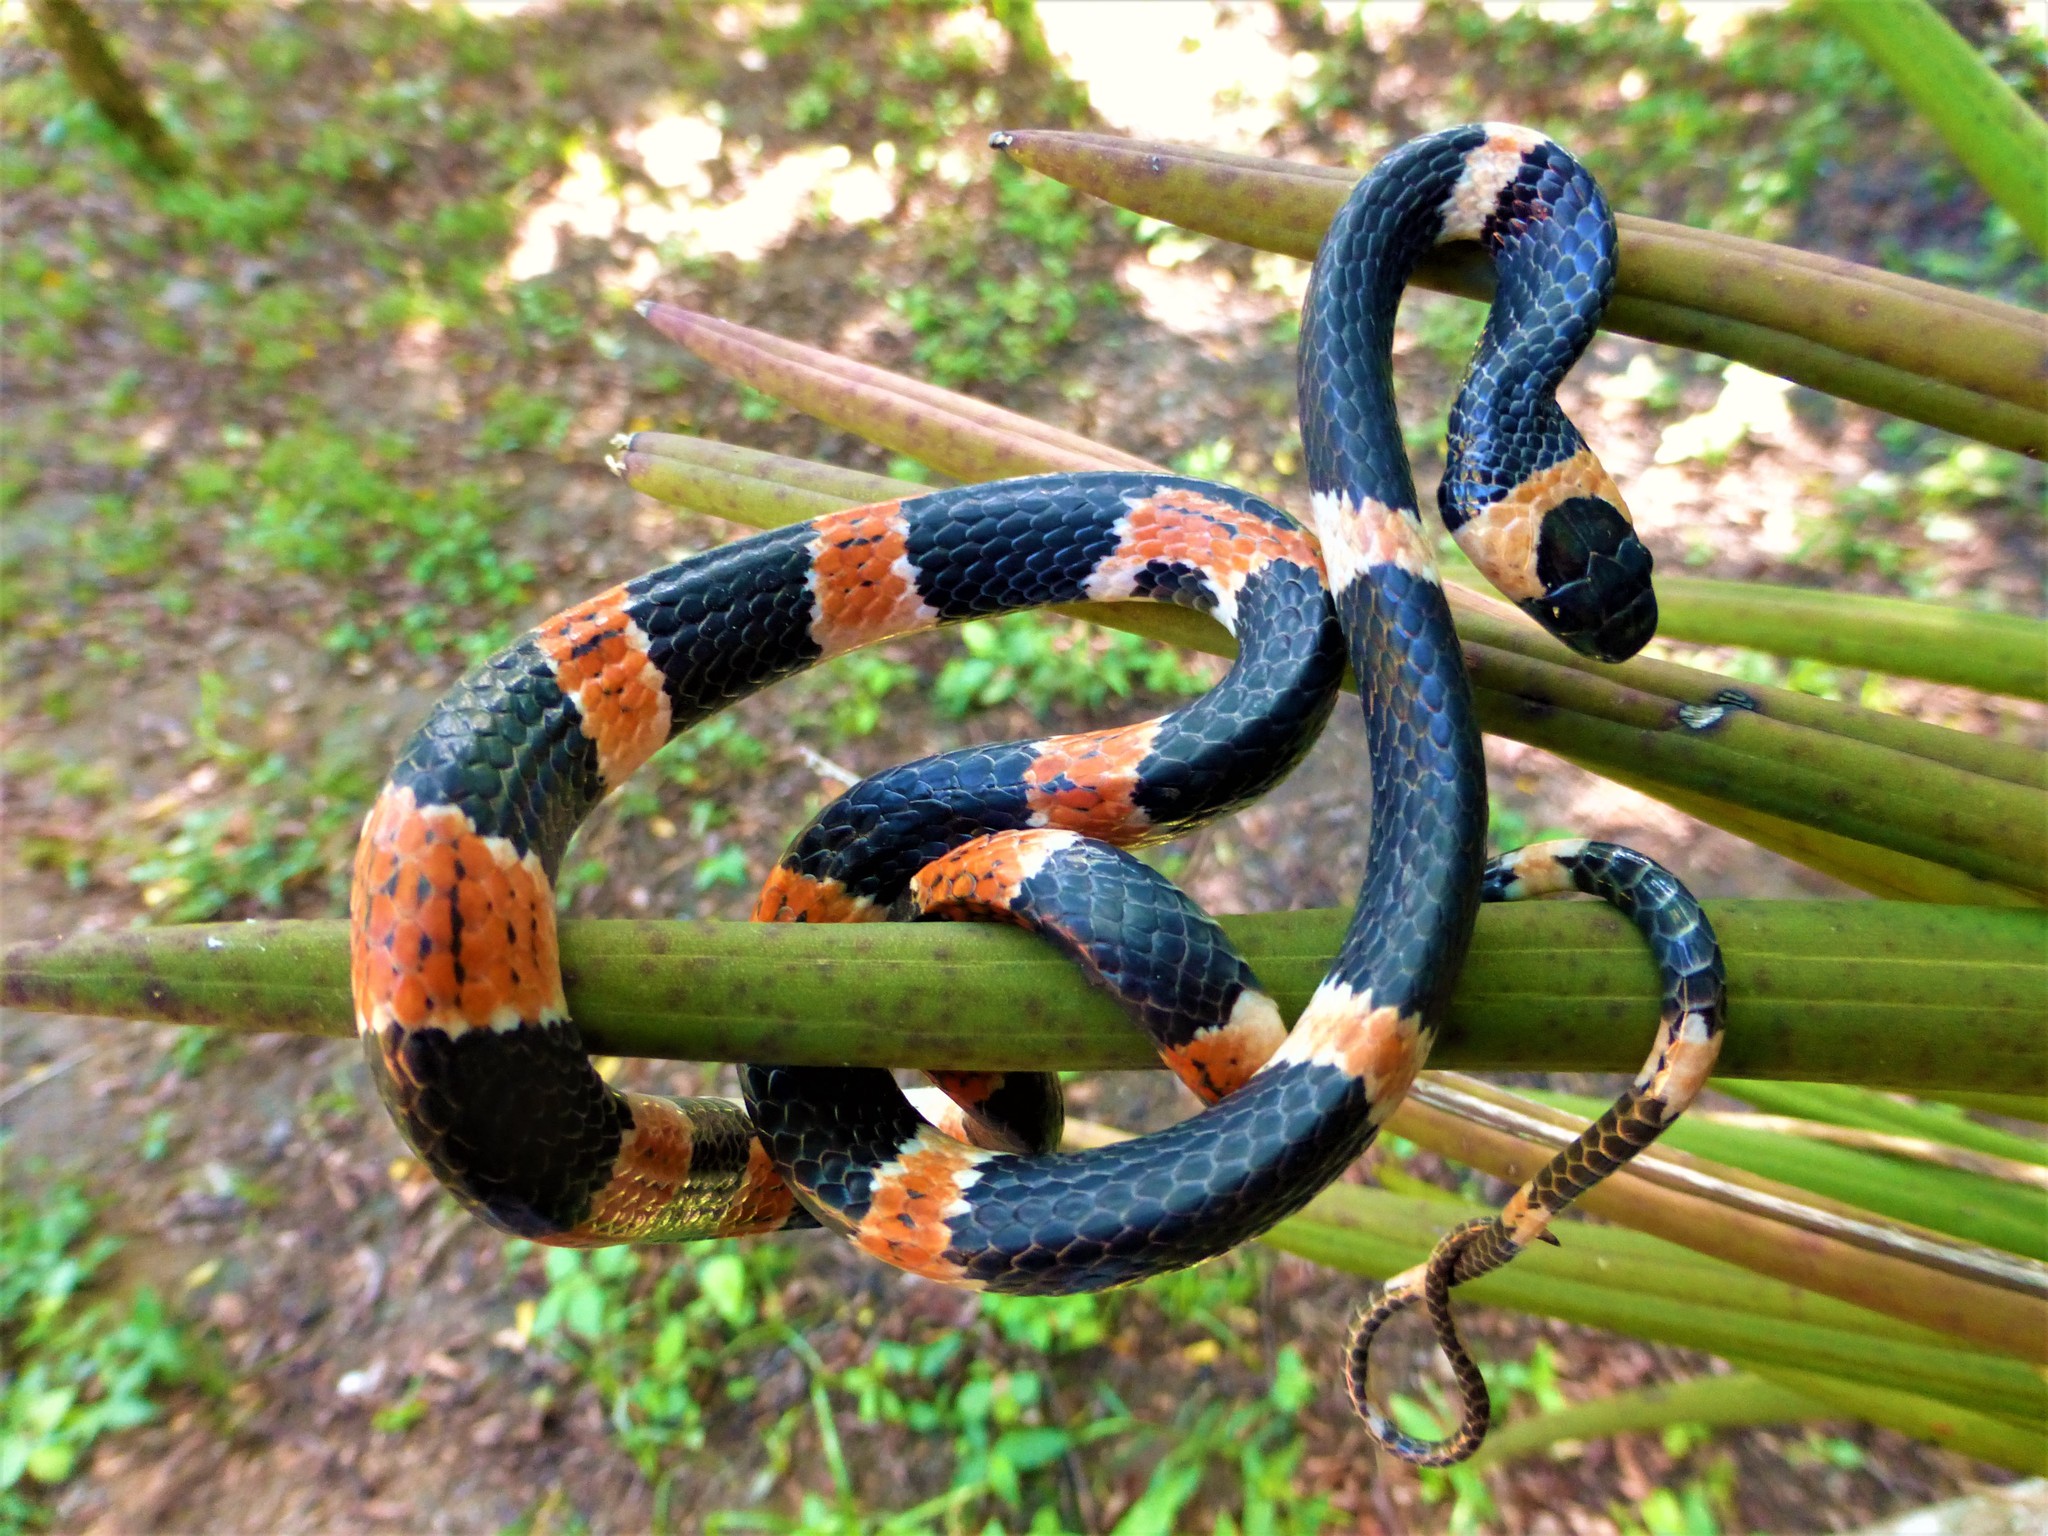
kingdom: Animalia
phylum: Chordata
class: Squamata
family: Colubridae
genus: Sibon
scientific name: Sibon anthracops
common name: Cope's snail sucker
